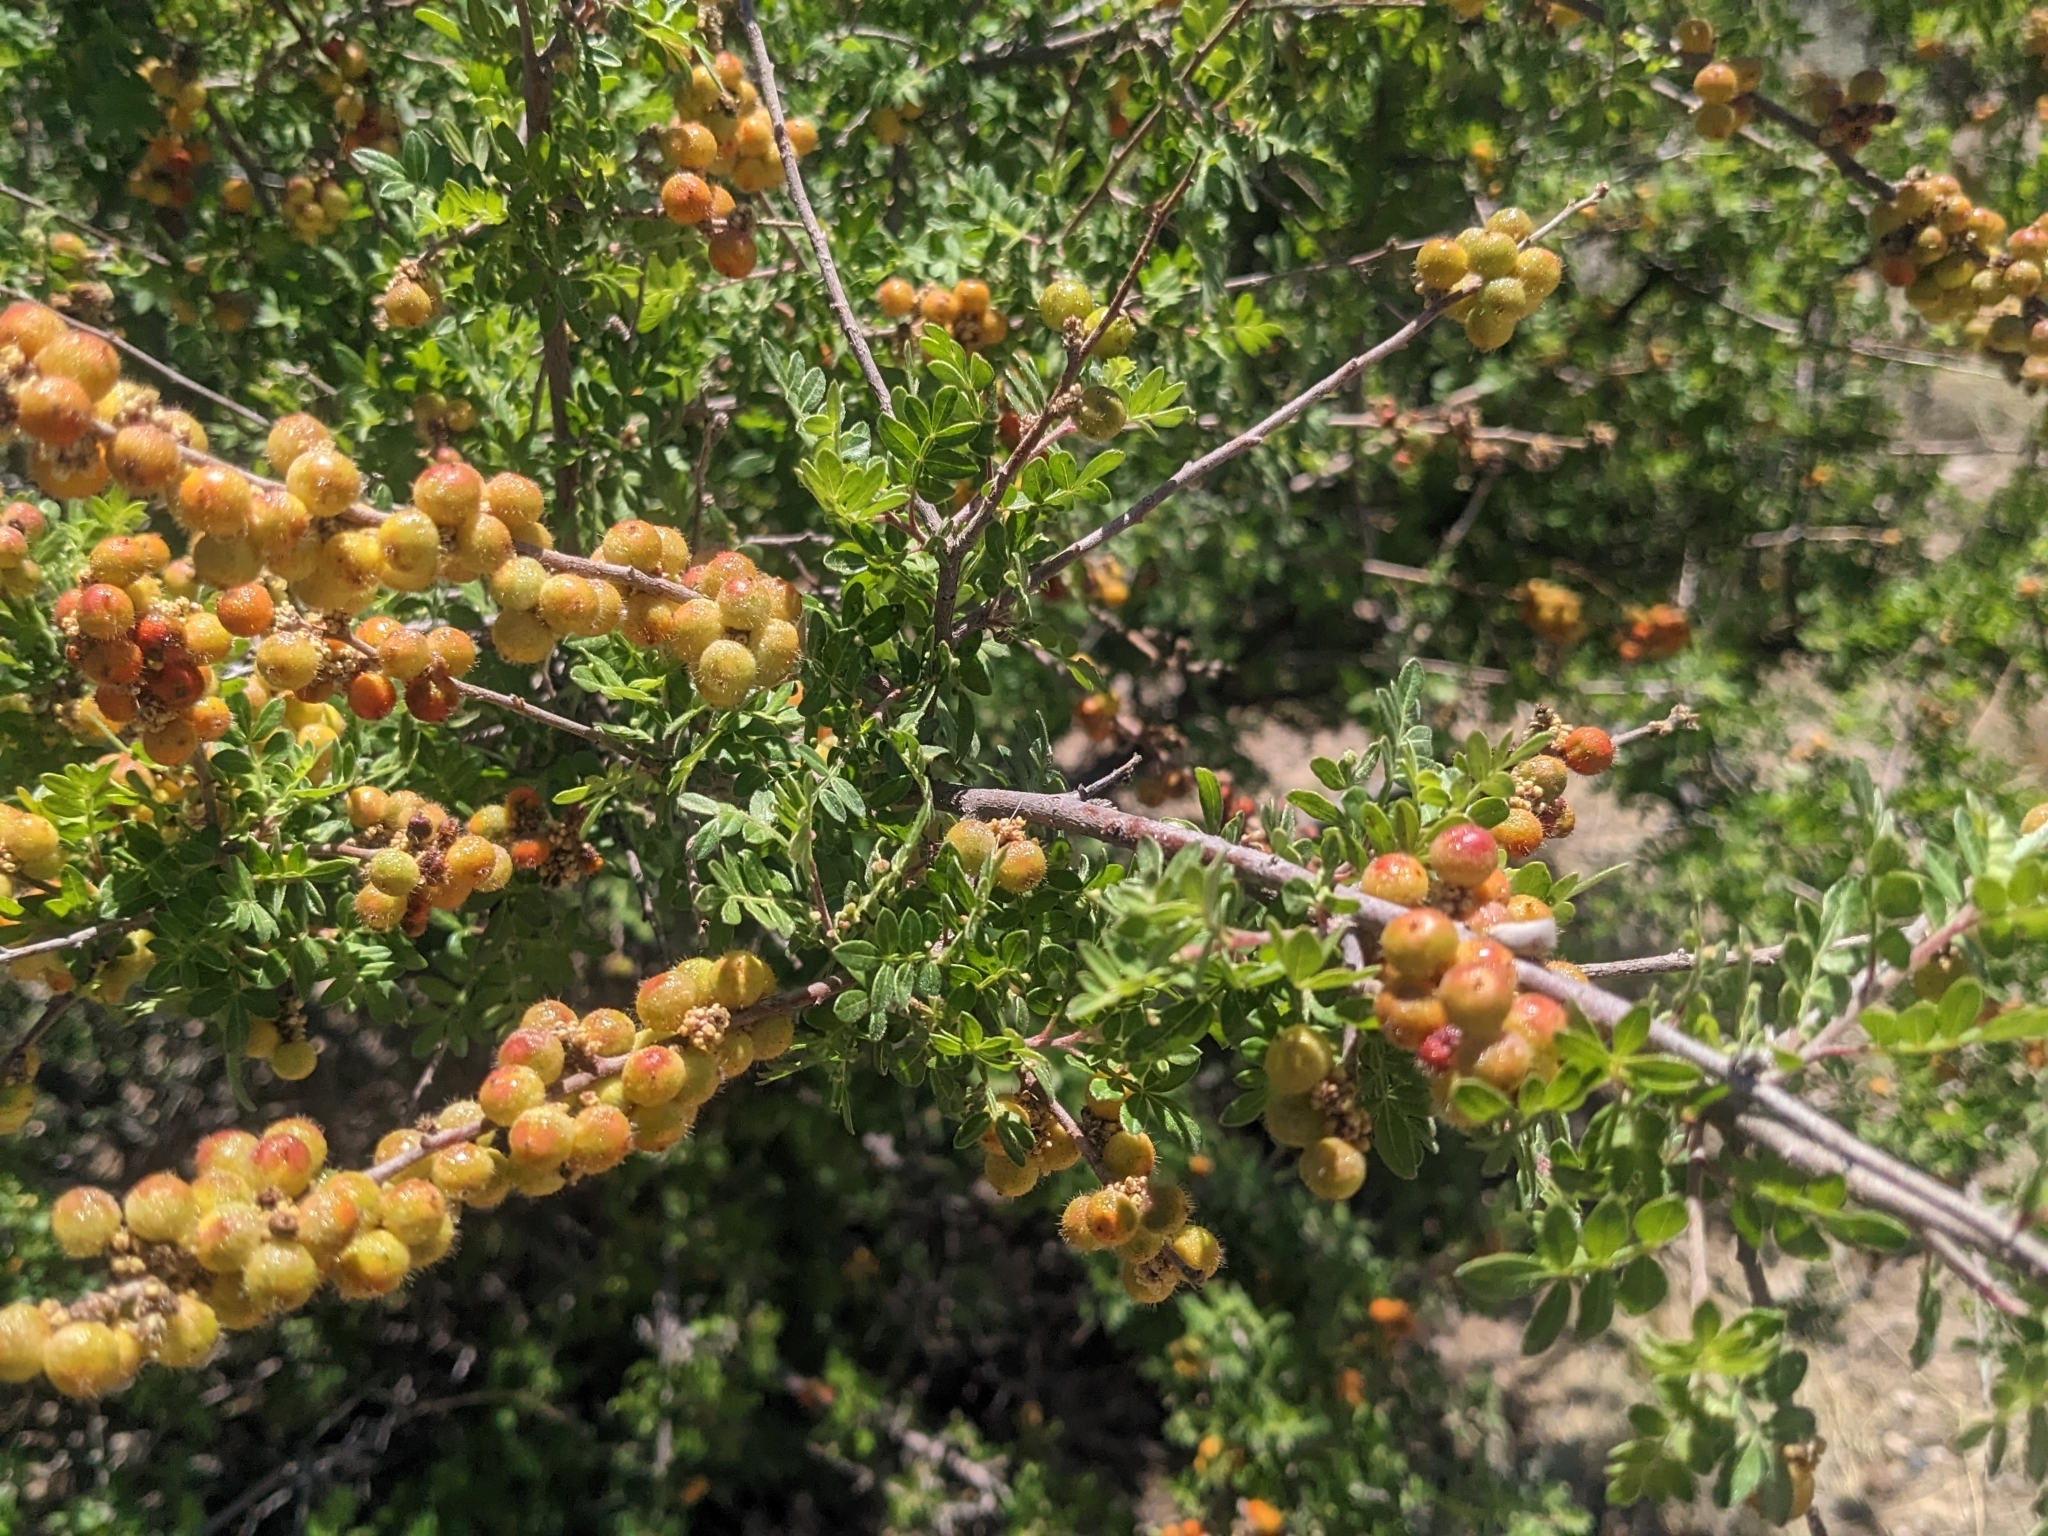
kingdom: Plantae
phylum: Tracheophyta
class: Magnoliopsida
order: Sapindales
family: Anacardiaceae
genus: Rhus
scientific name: Rhus microphylla
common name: Desert sumac
